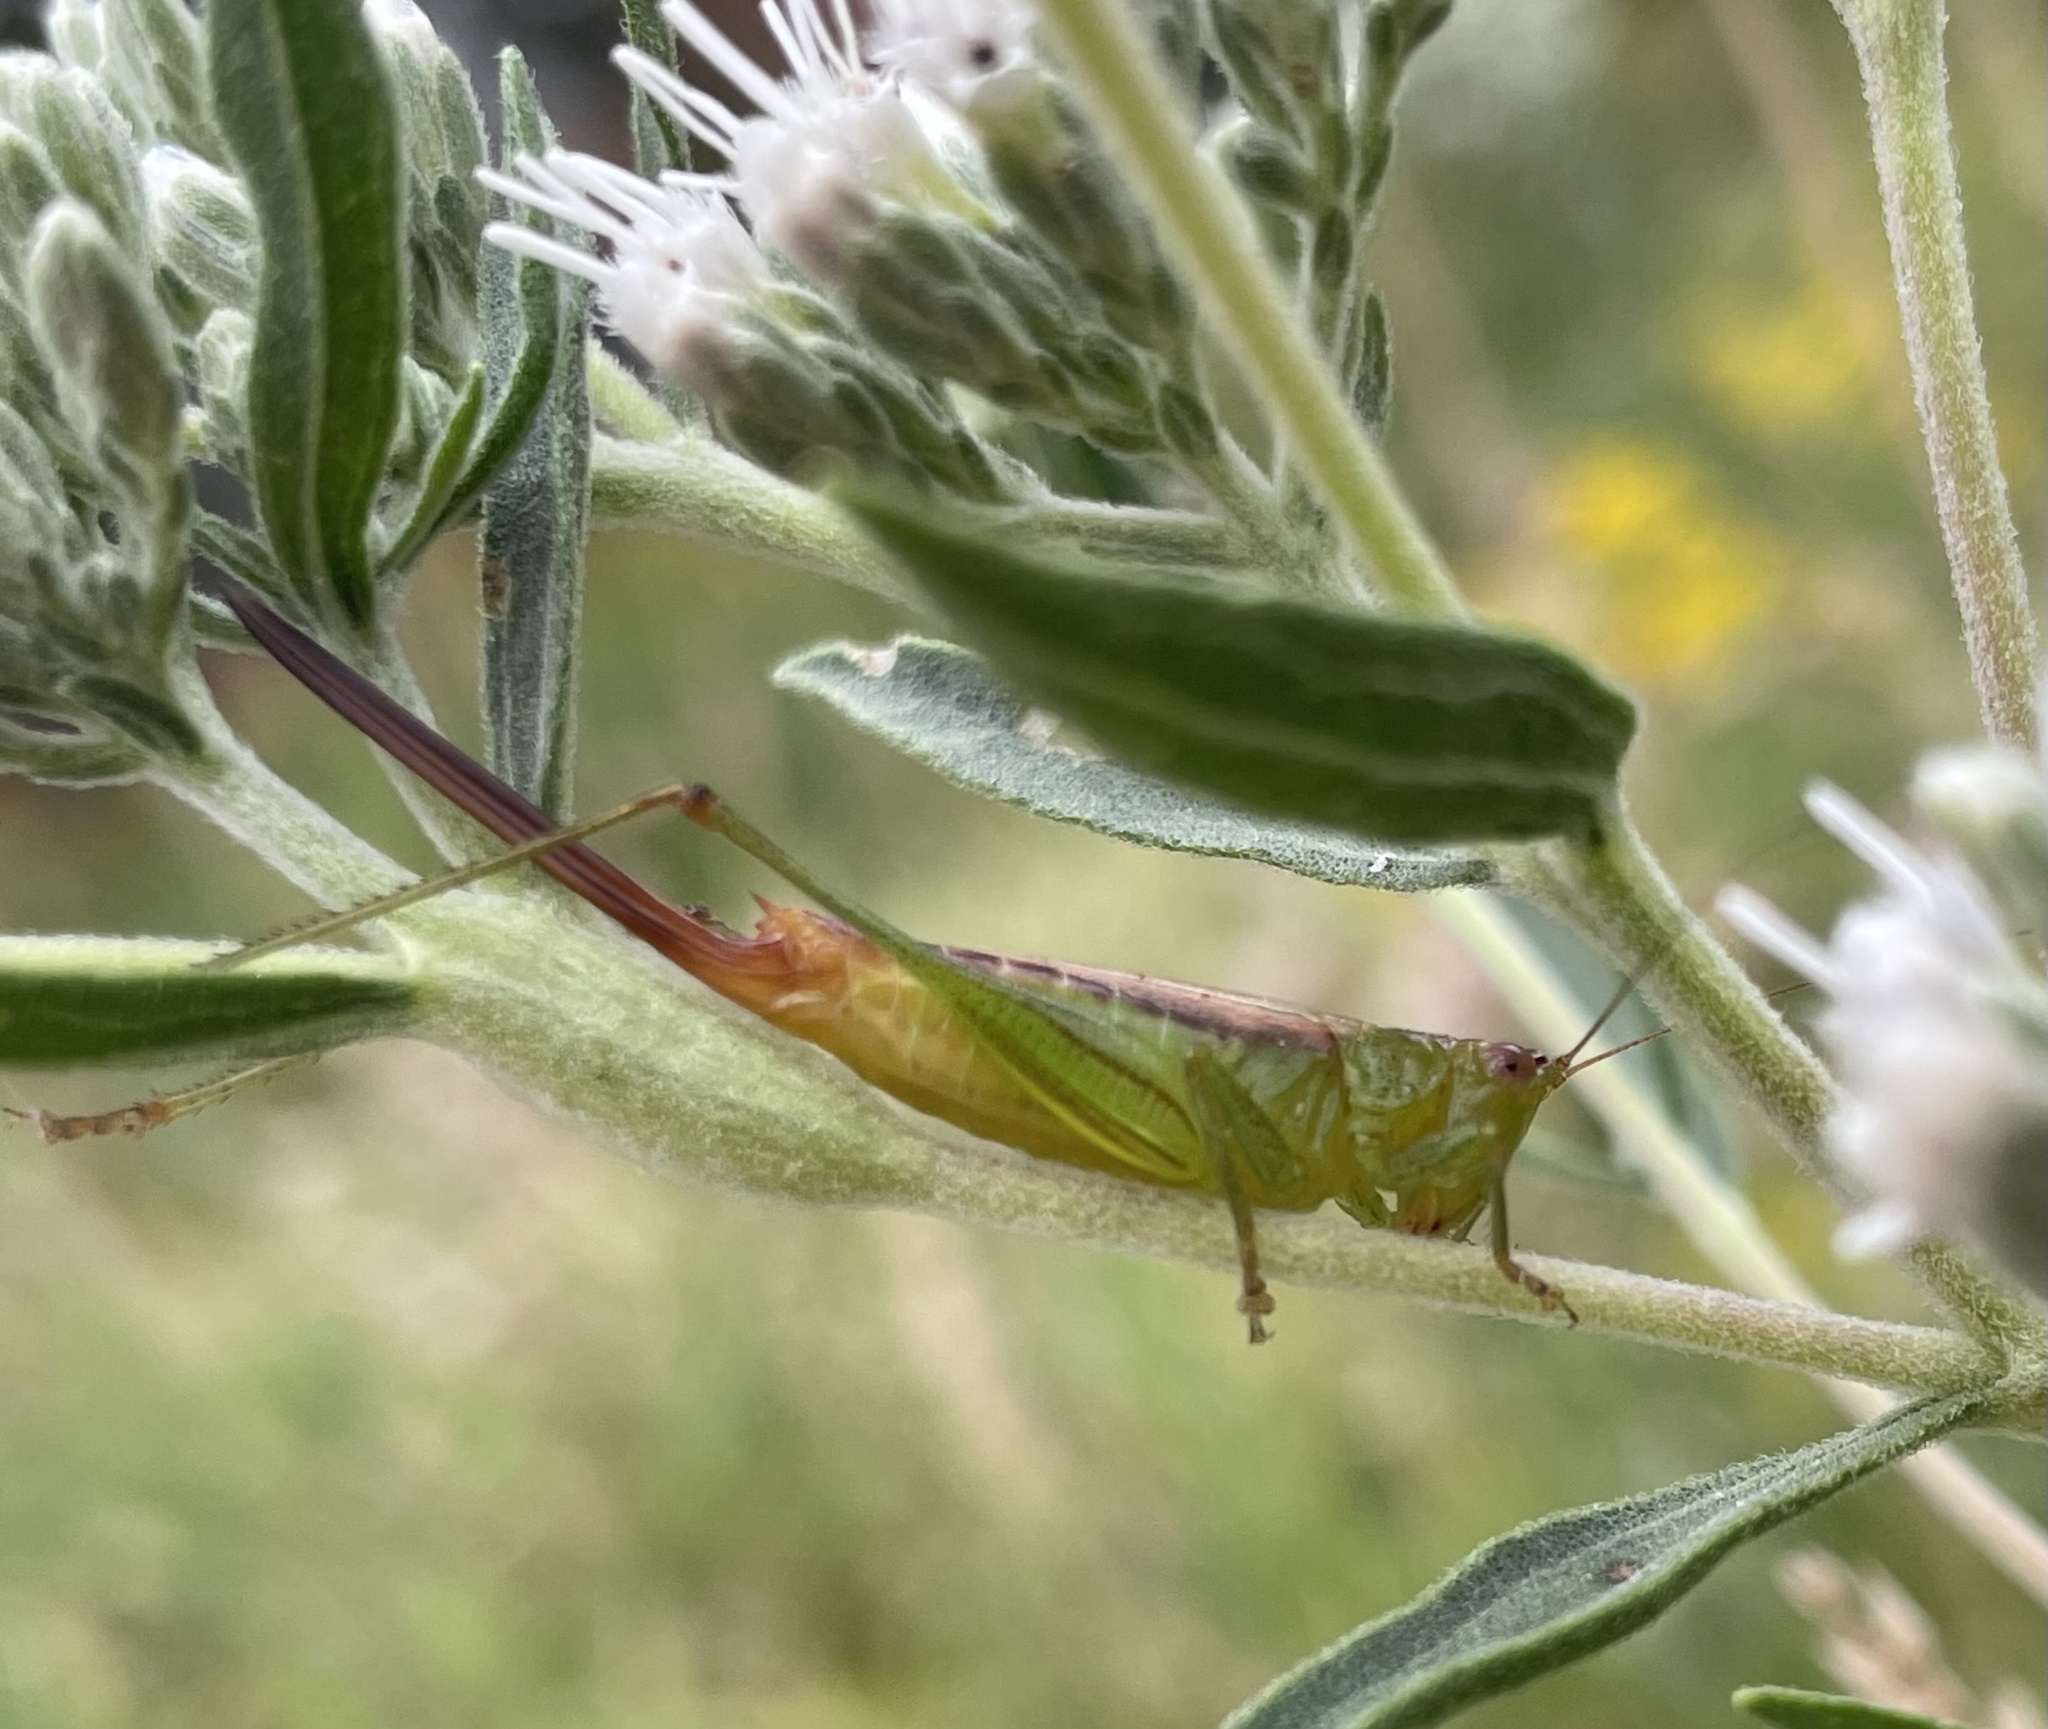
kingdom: Animalia
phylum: Arthropoda
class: Insecta
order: Orthoptera
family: Tettigoniidae
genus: Conocephalus
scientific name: Conocephalus brevipennis
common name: Short-winged meadow katydid
